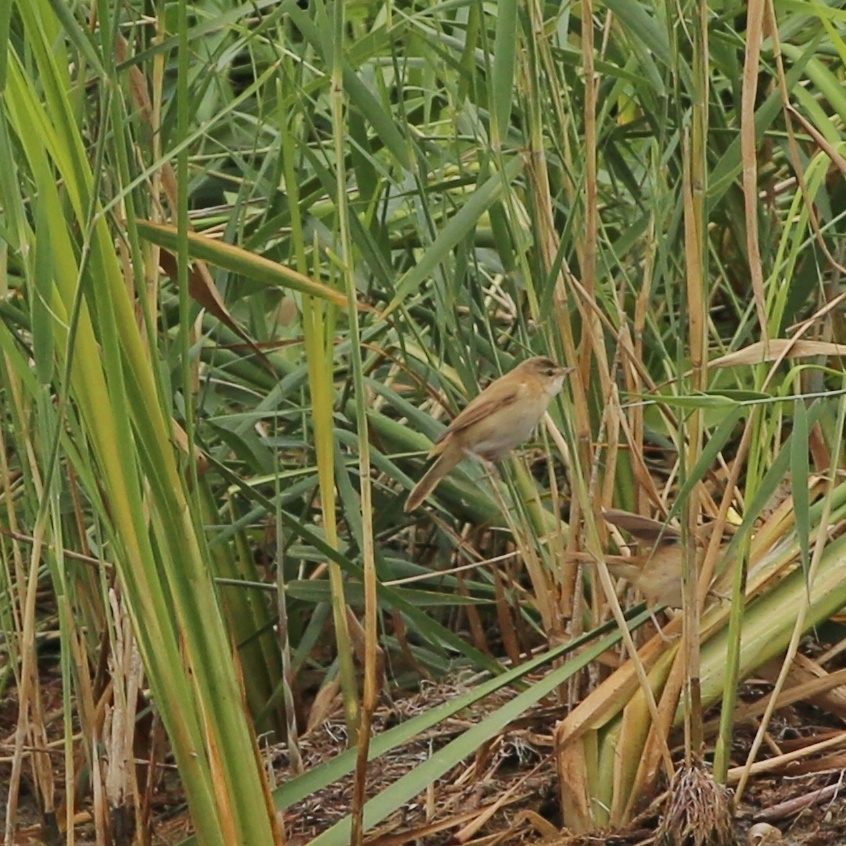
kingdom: Animalia
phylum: Chordata
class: Aves
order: Passeriformes
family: Acrocephalidae
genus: Acrocephalus
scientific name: Acrocephalus agricola
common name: Paddyfield warbler
